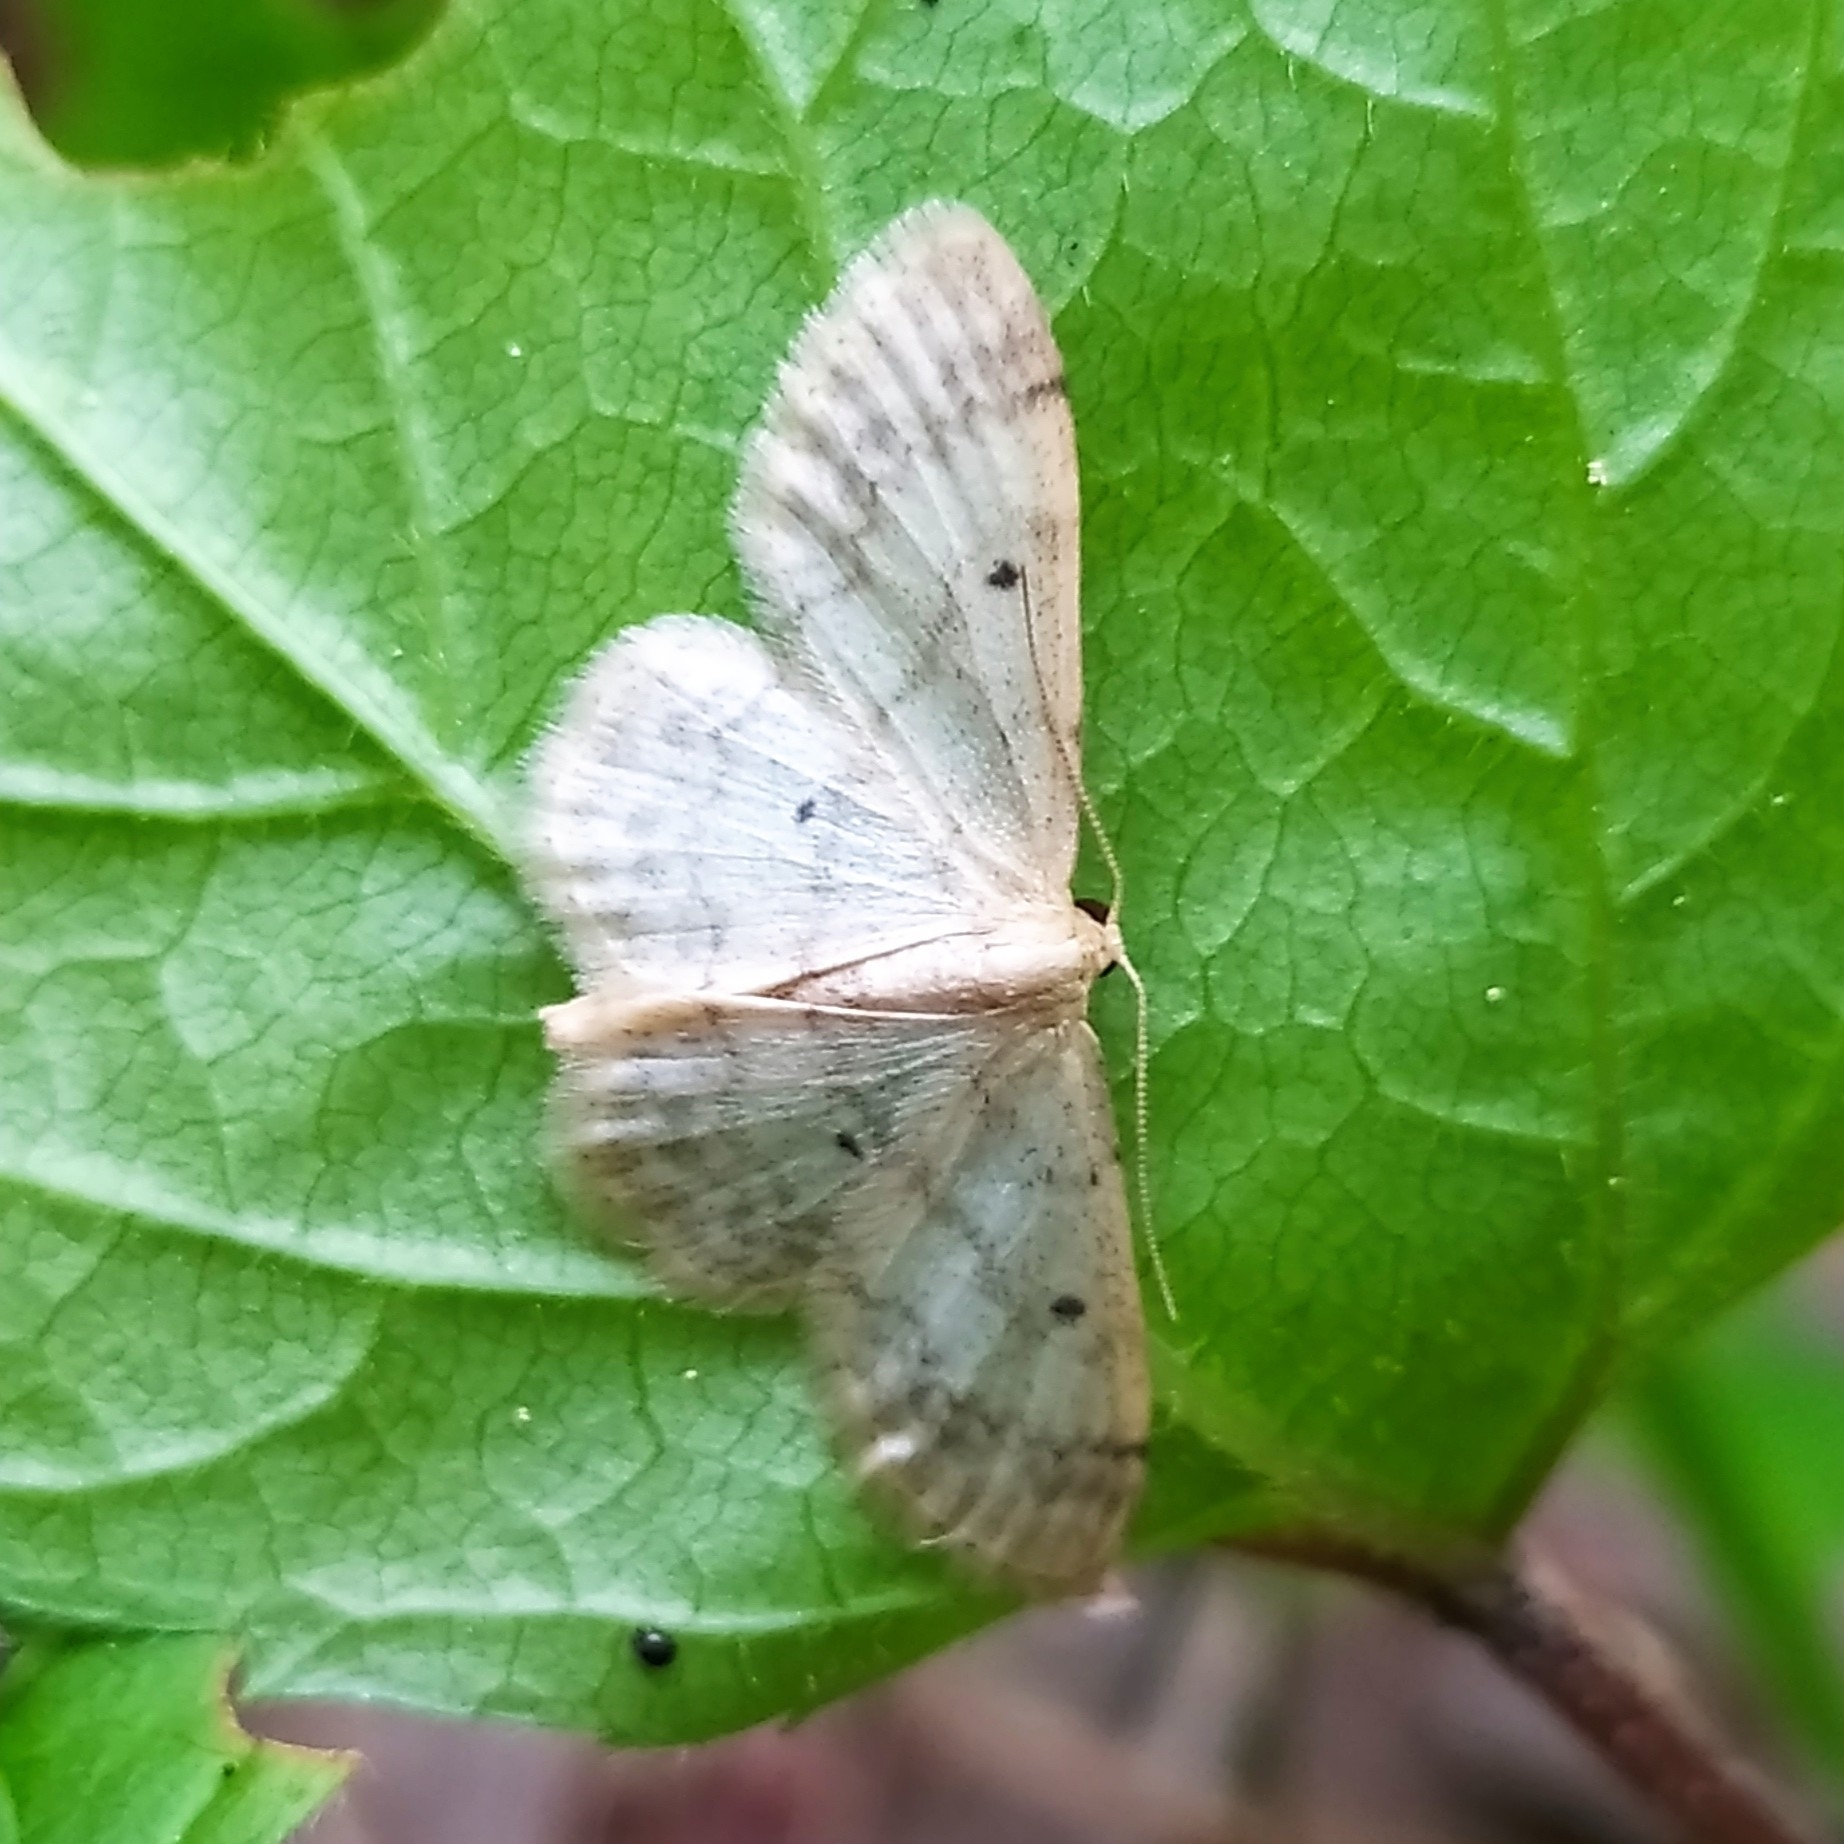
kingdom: Animalia
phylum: Arthropoda
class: Insecta
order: Lepidoptera
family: Geometridae
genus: Idaea
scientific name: Idaea biselata
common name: Small fan-footed wave
